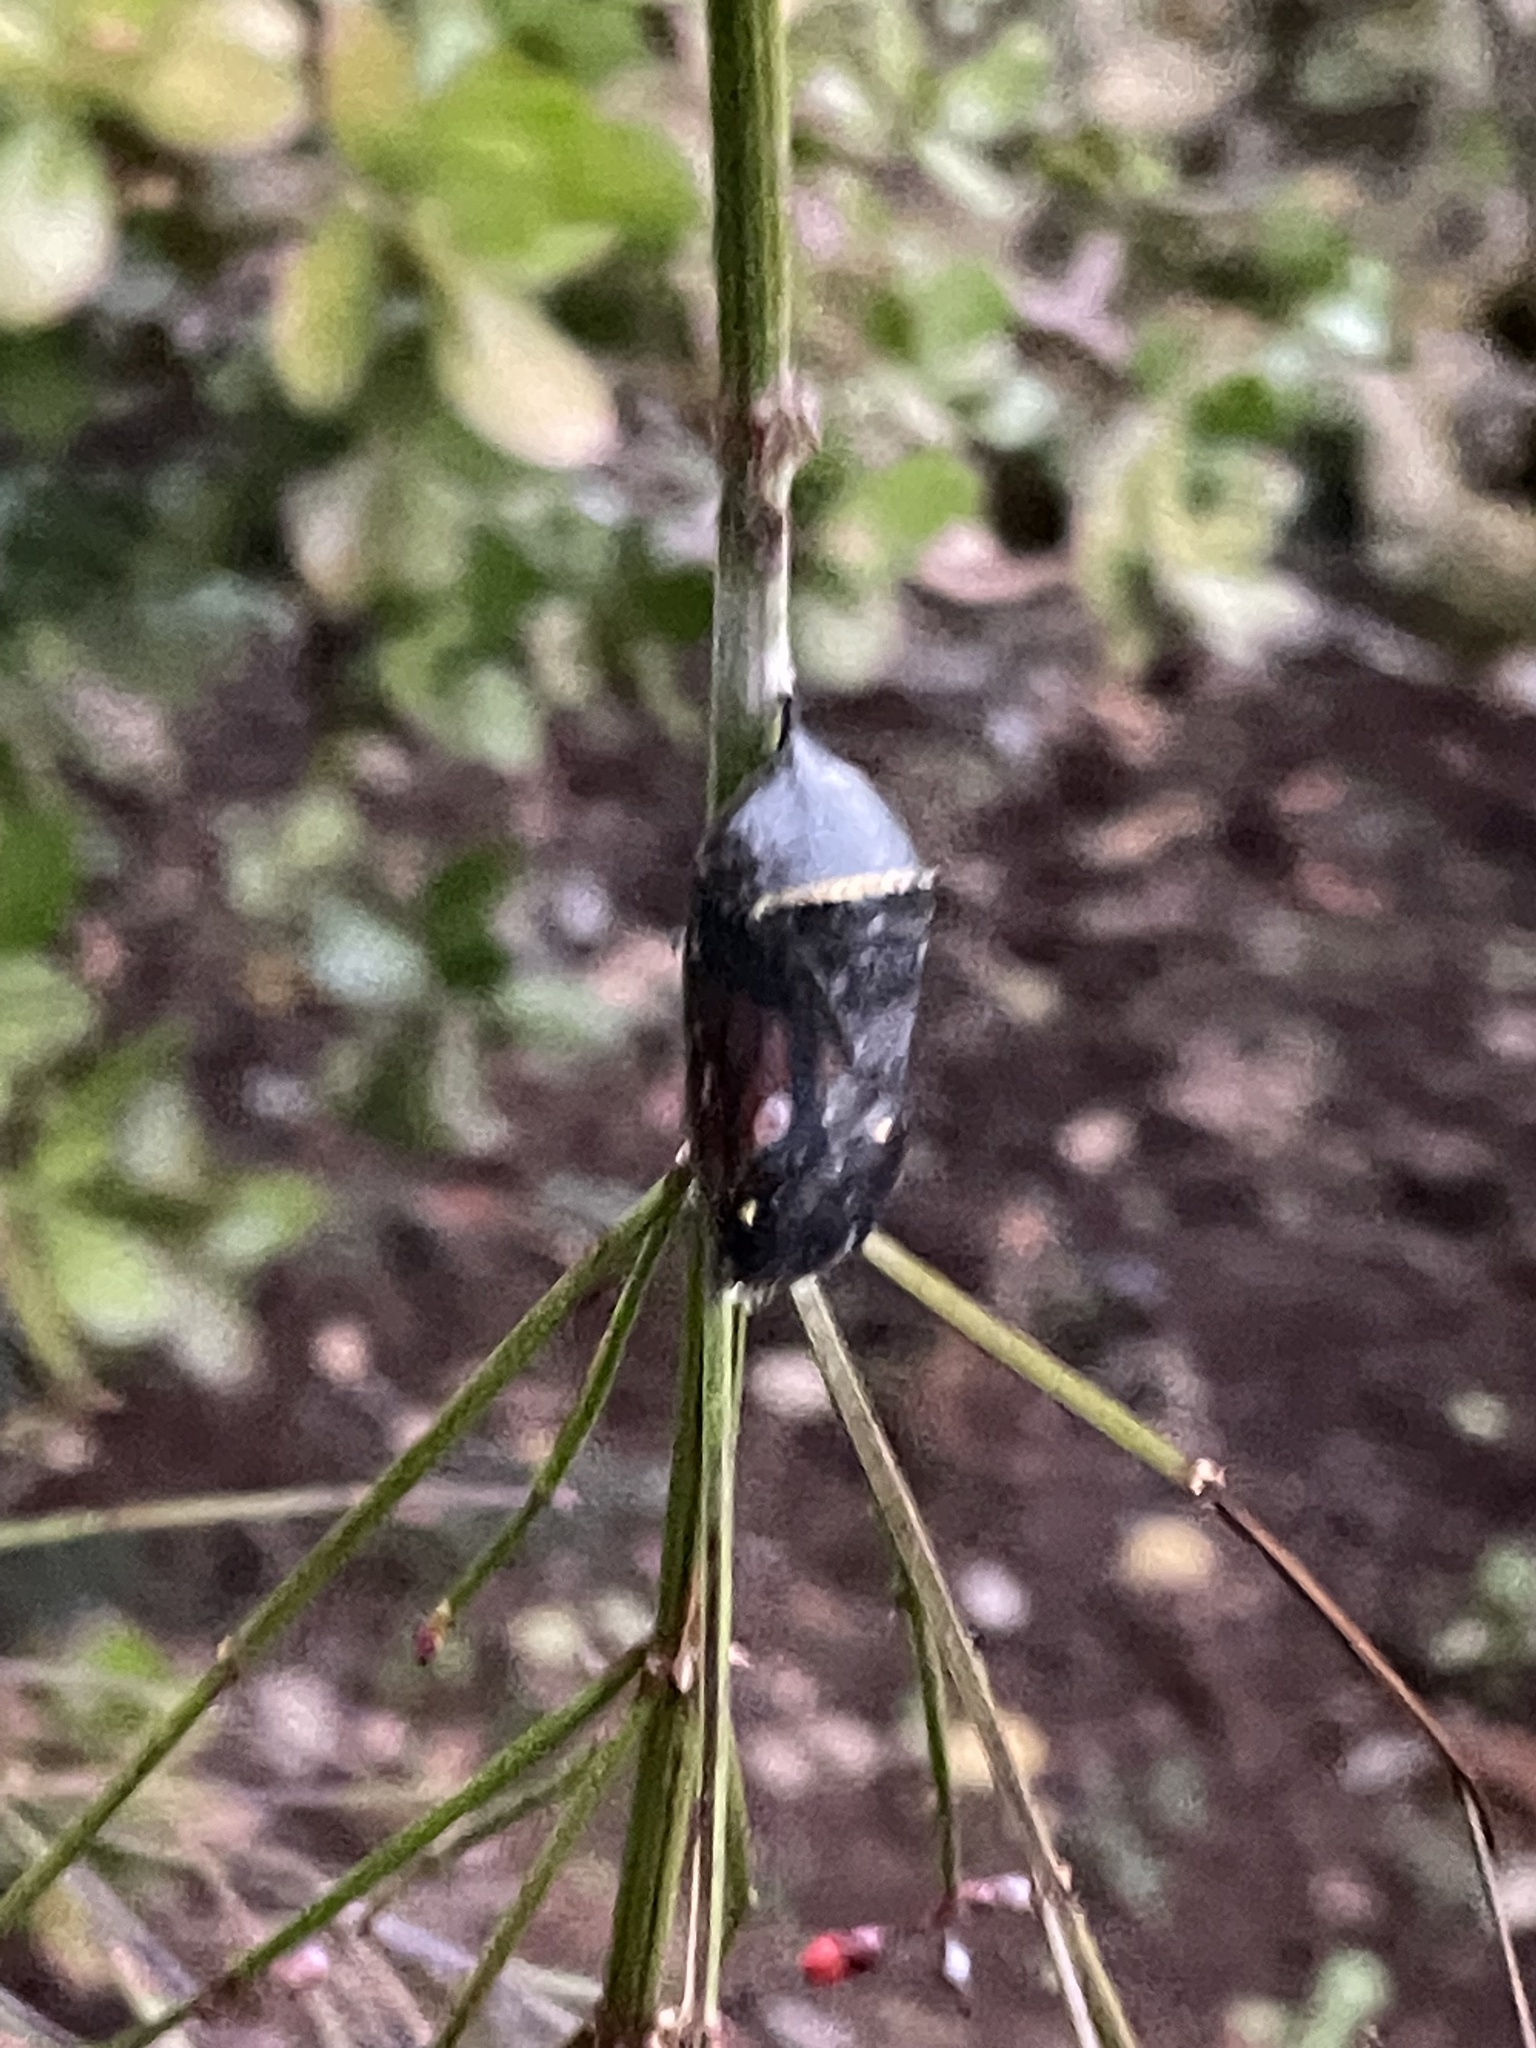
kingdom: Animalia
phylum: Arthropoda
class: Insecta
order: Lepidoptera
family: Nymphalidae
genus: Danaus
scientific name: Danaus plexippus
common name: Monarch
